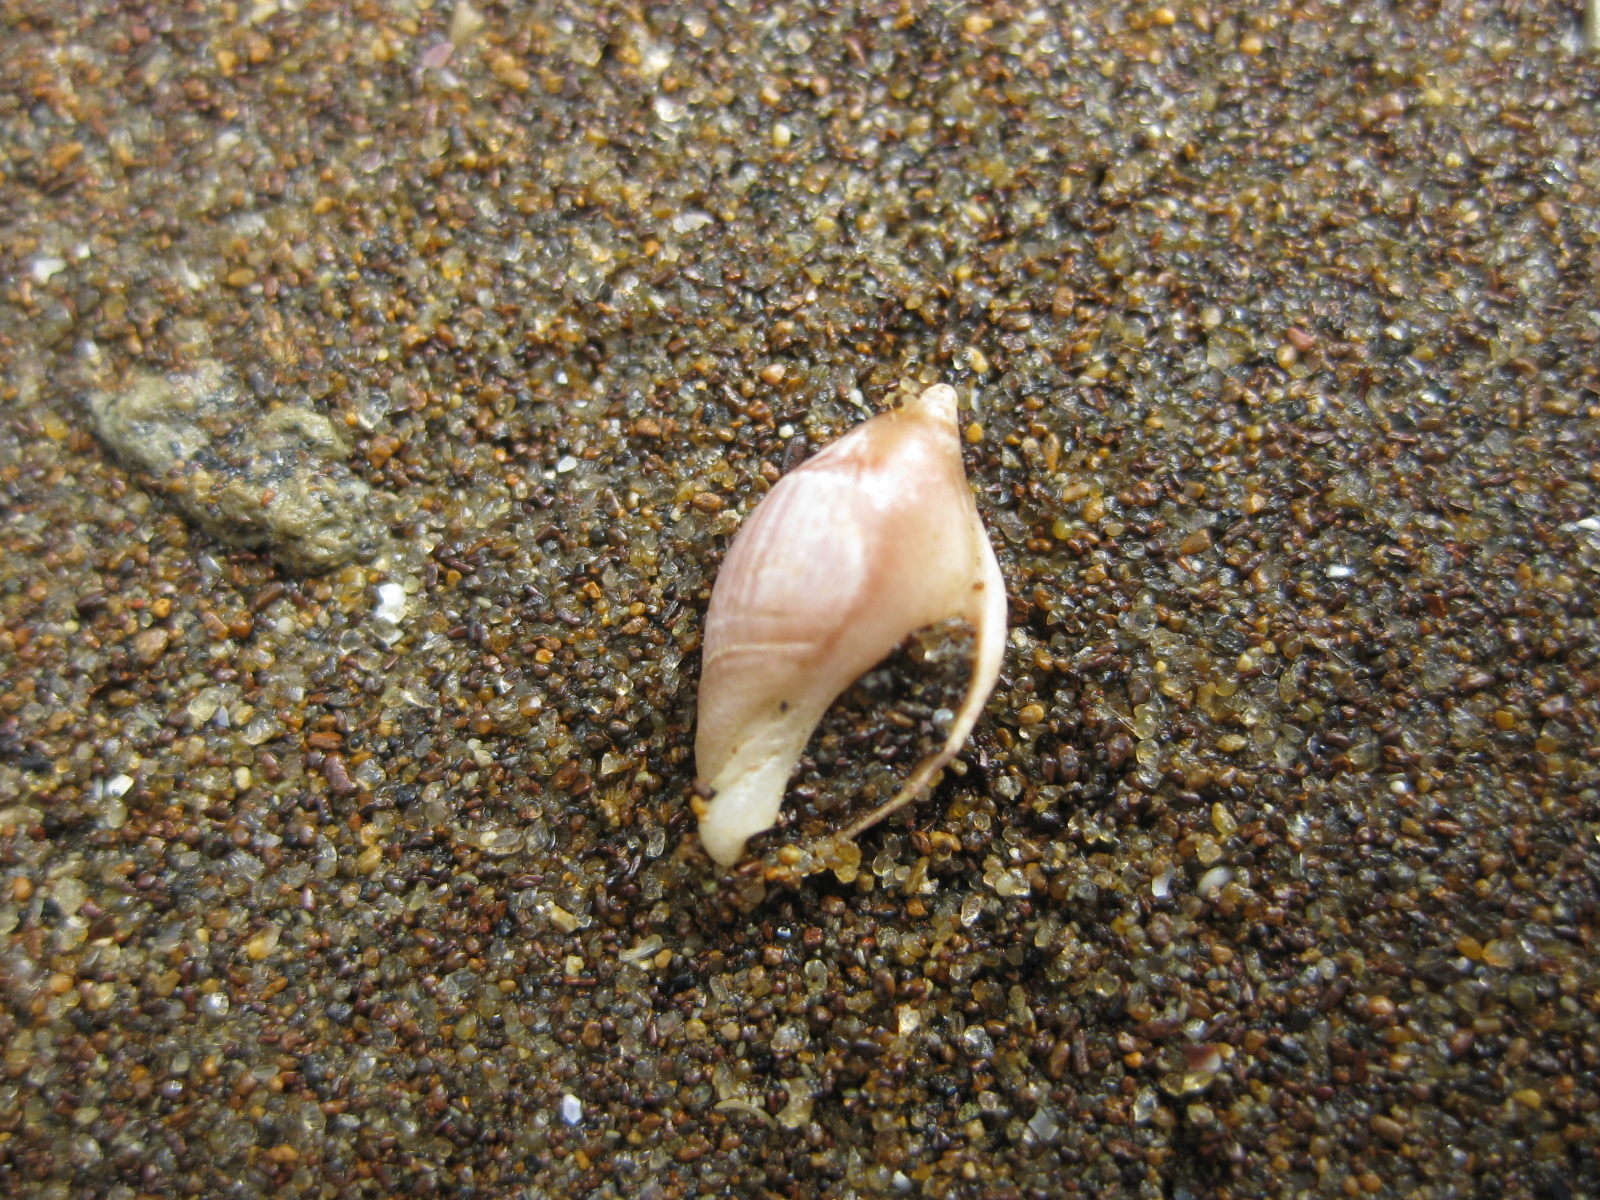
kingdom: Animalia
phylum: Mollusca
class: Gastropoda
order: Neogastropoda
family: Ancillariidae
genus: Amalda
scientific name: Amalda depressa
